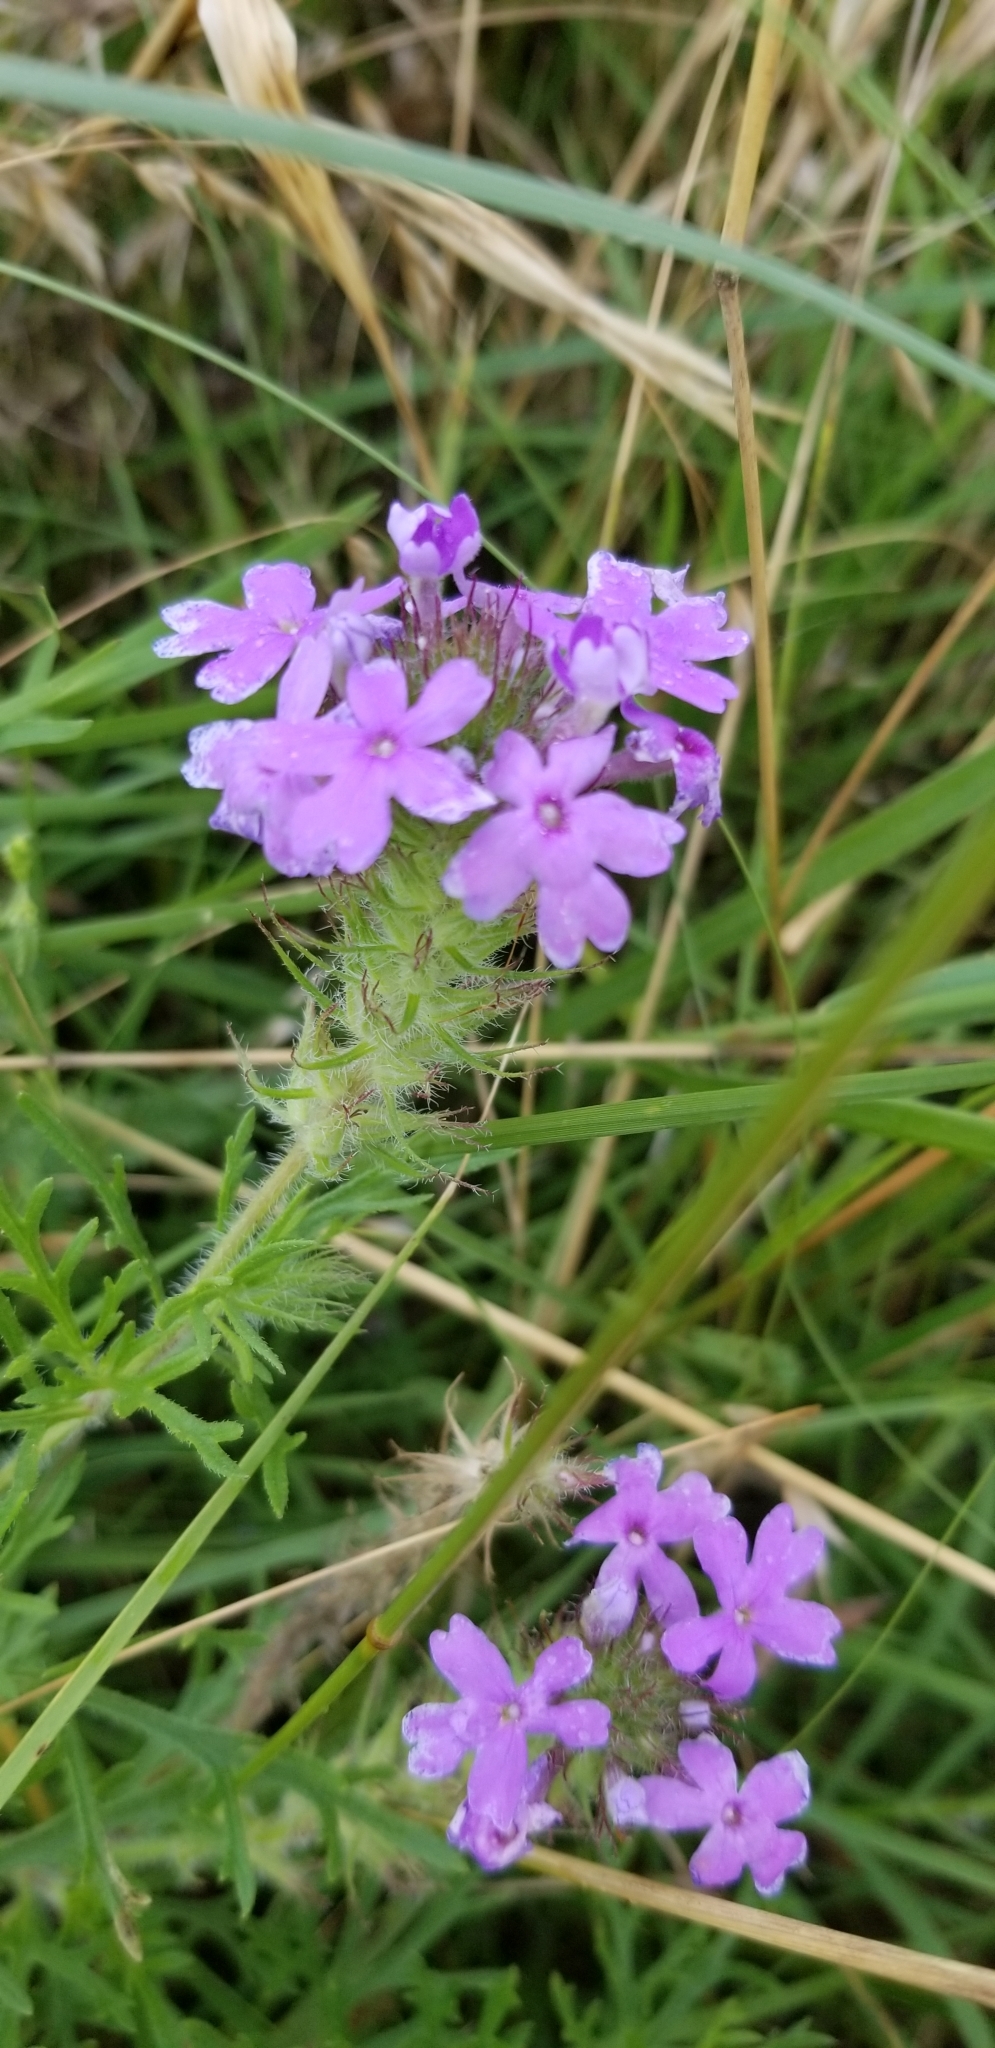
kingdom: Plantae
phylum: Tracheophyta
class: Magnoliopsida
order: Lamiales
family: Verbenaceae
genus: Verbena
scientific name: Verbena bipinnatifida
